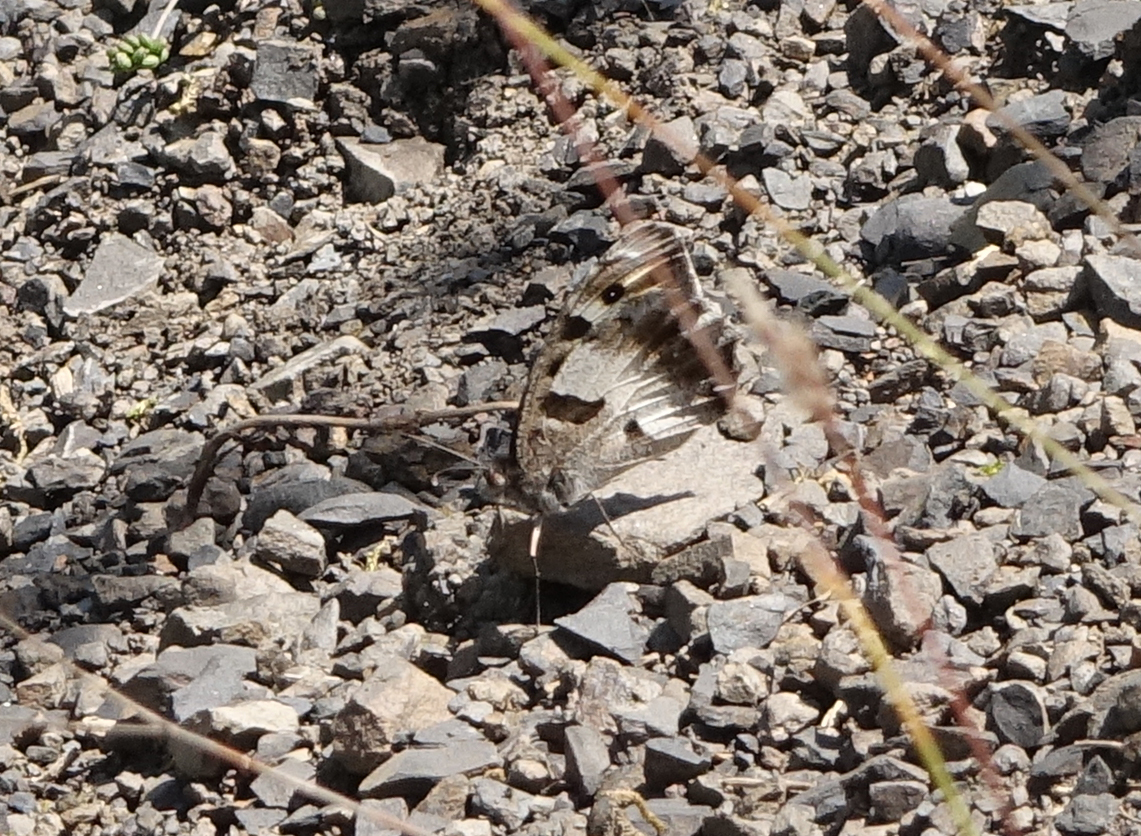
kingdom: Animalia
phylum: Arthropoda
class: Insecta
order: Lepidoptera
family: Nymphalidae
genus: Satyrus
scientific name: Satyrus briseis
